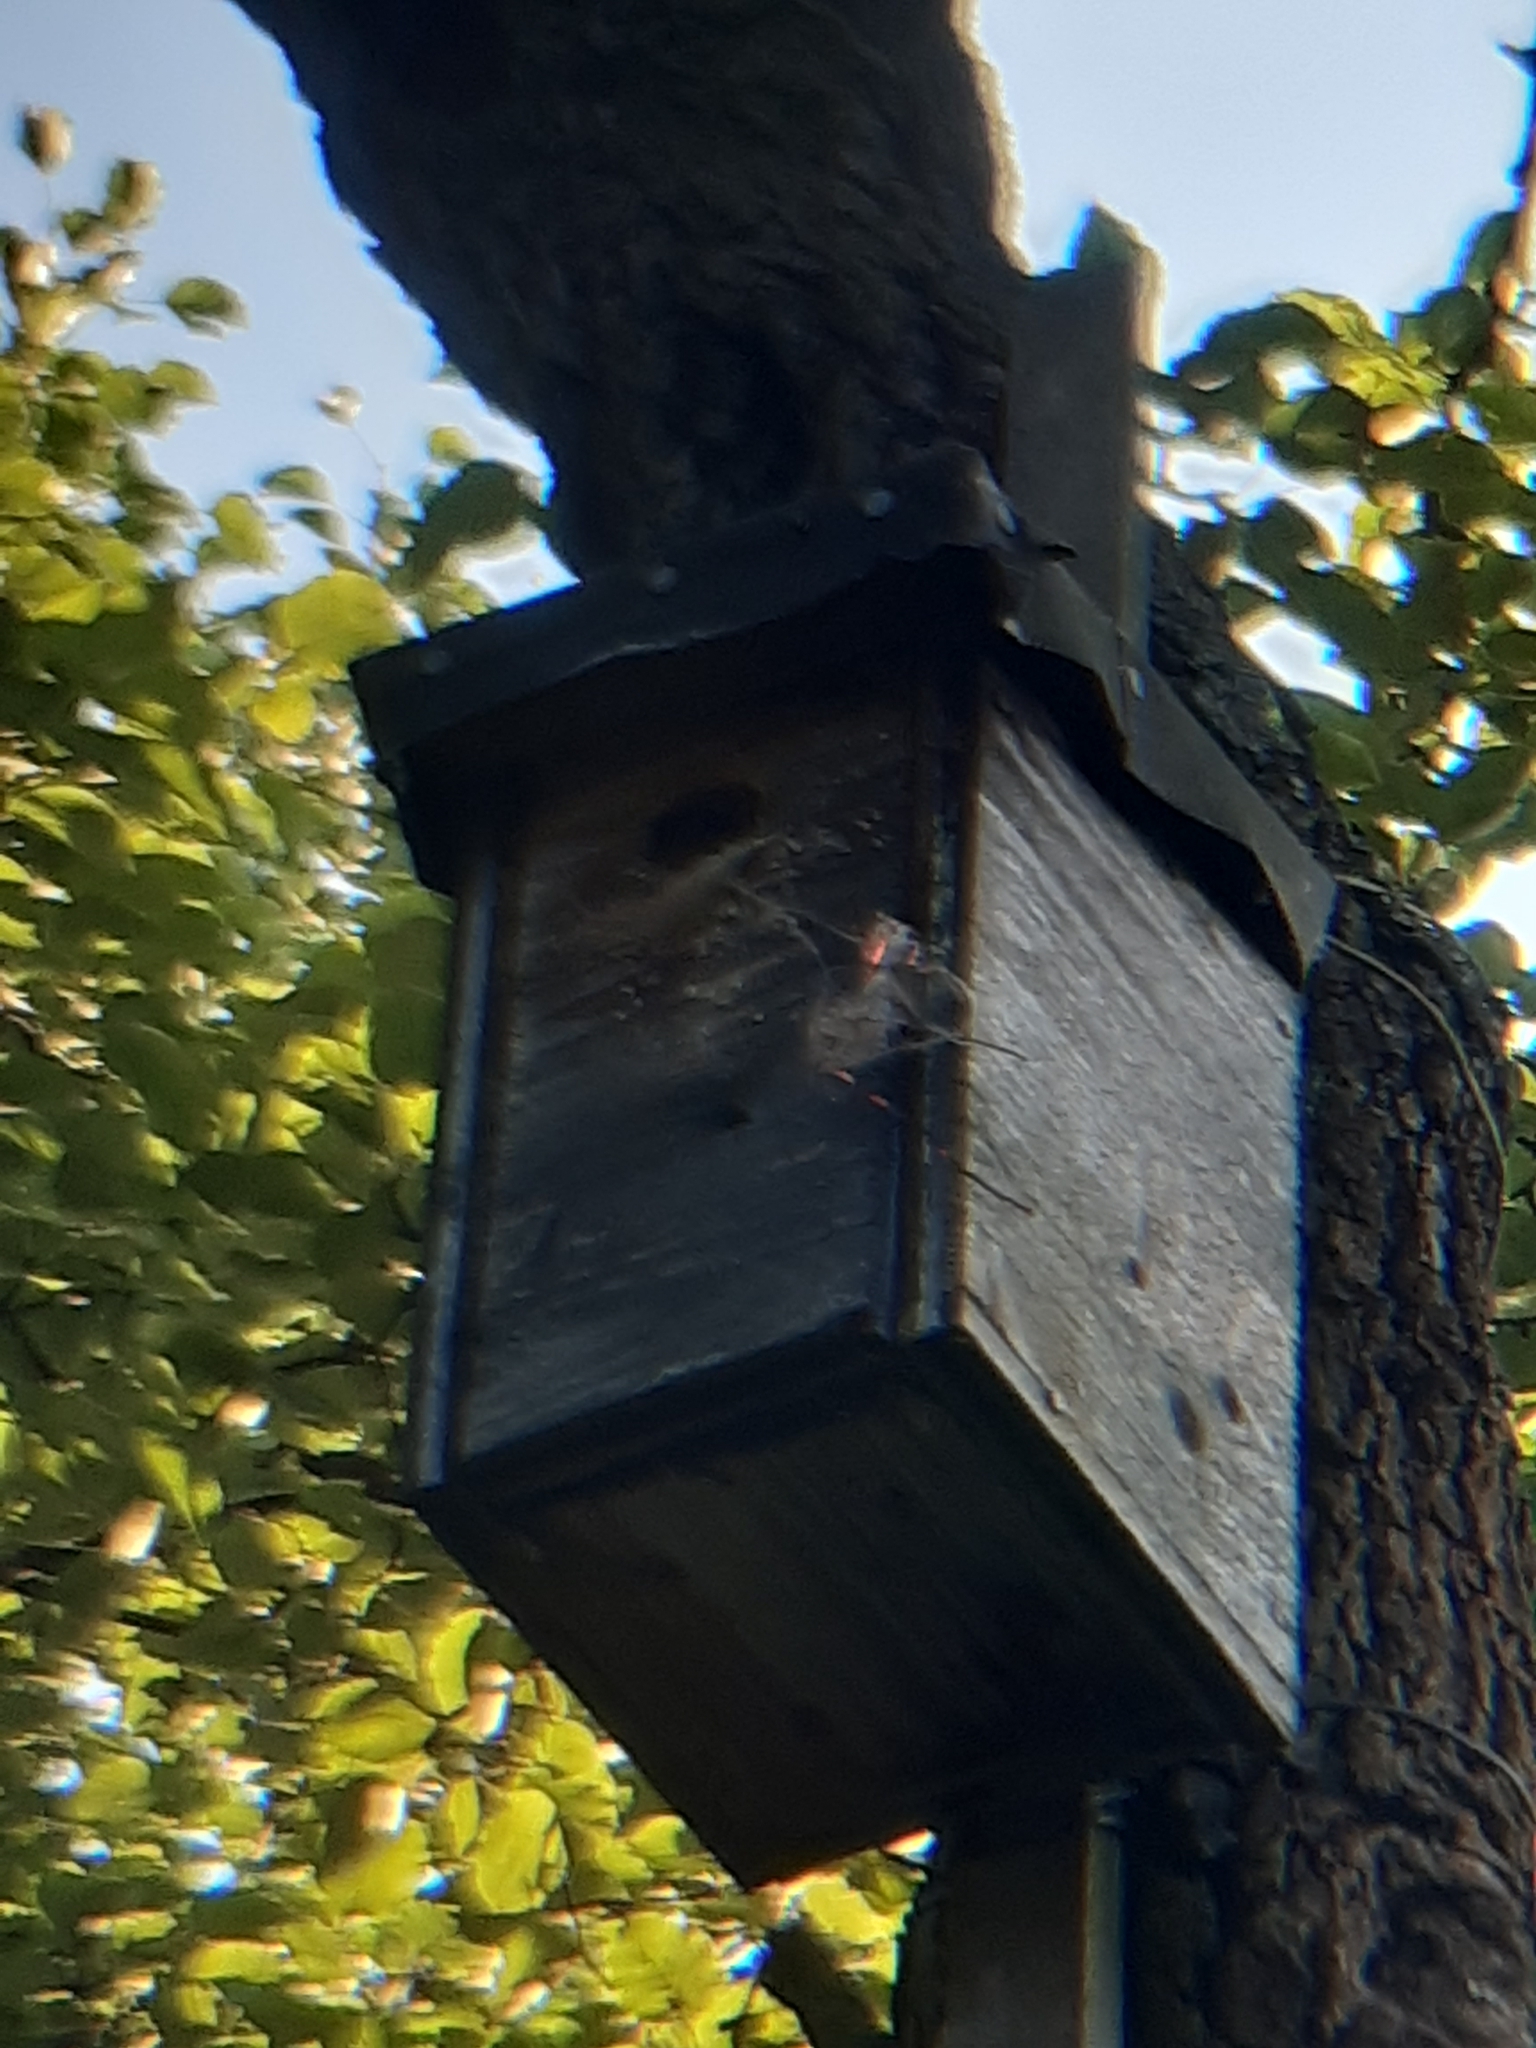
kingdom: Animalia
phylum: Arthropoda
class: Insecta
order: Hymenoptera
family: Apidae
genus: Bombus
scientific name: Bombus hypnorum
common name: New garden bumblebee
